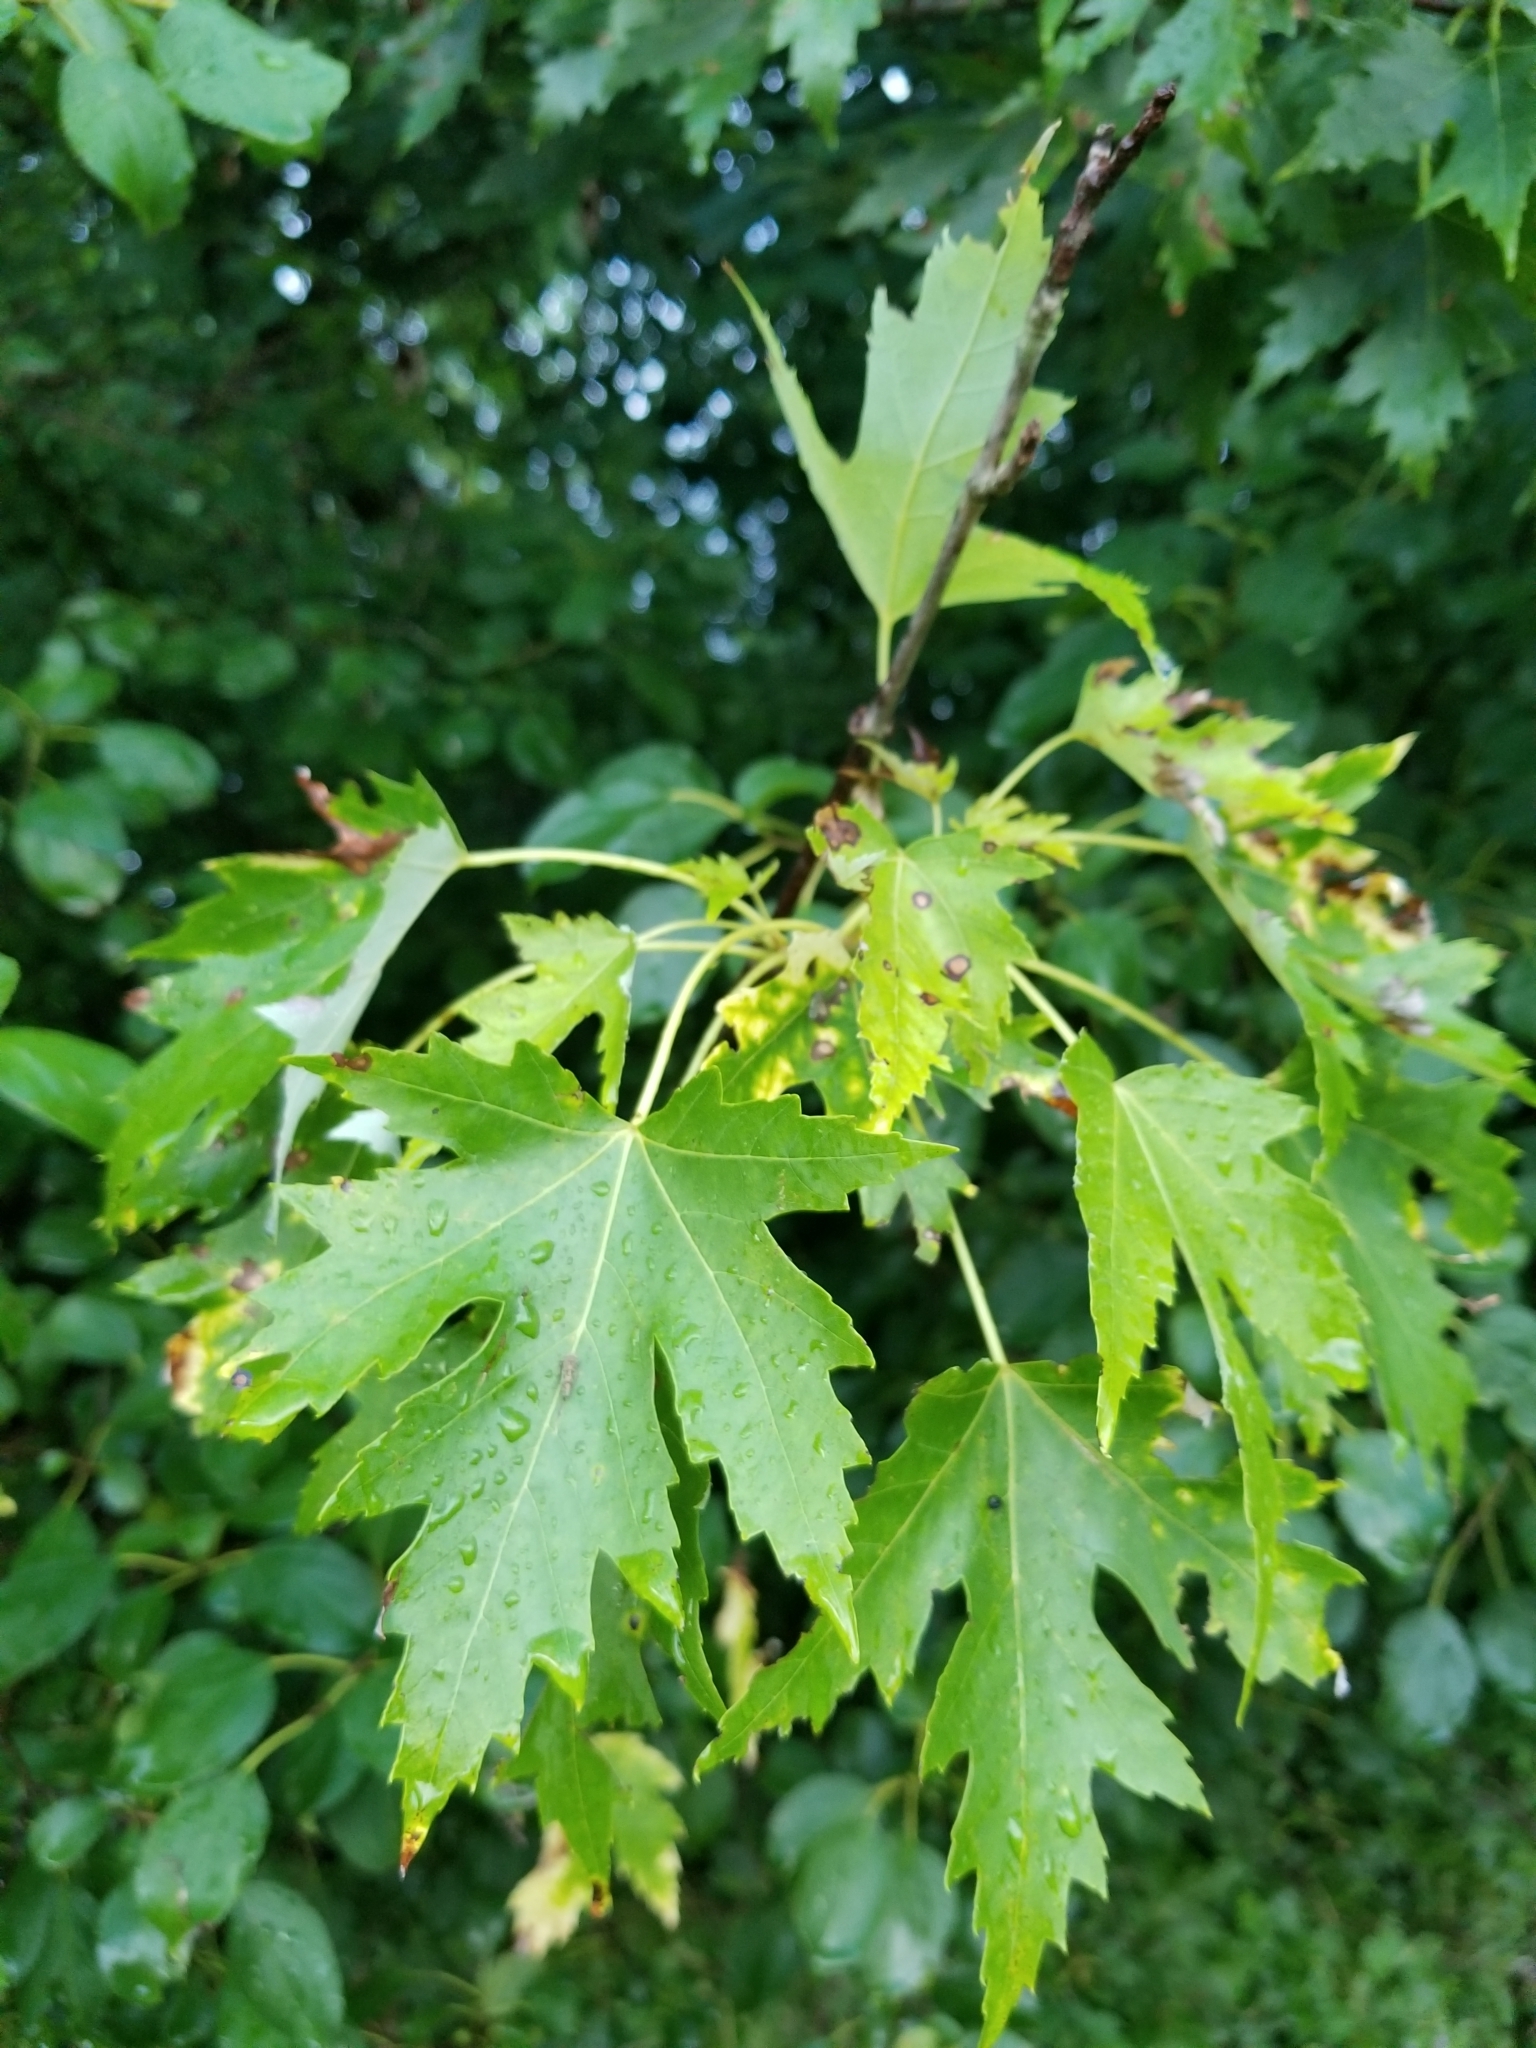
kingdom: Plantae
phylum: Tracheophyta
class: Magnoliopsida
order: Sapindales
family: Sapindaceae
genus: Acer
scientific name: Acer saccharinum
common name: Silver maple
